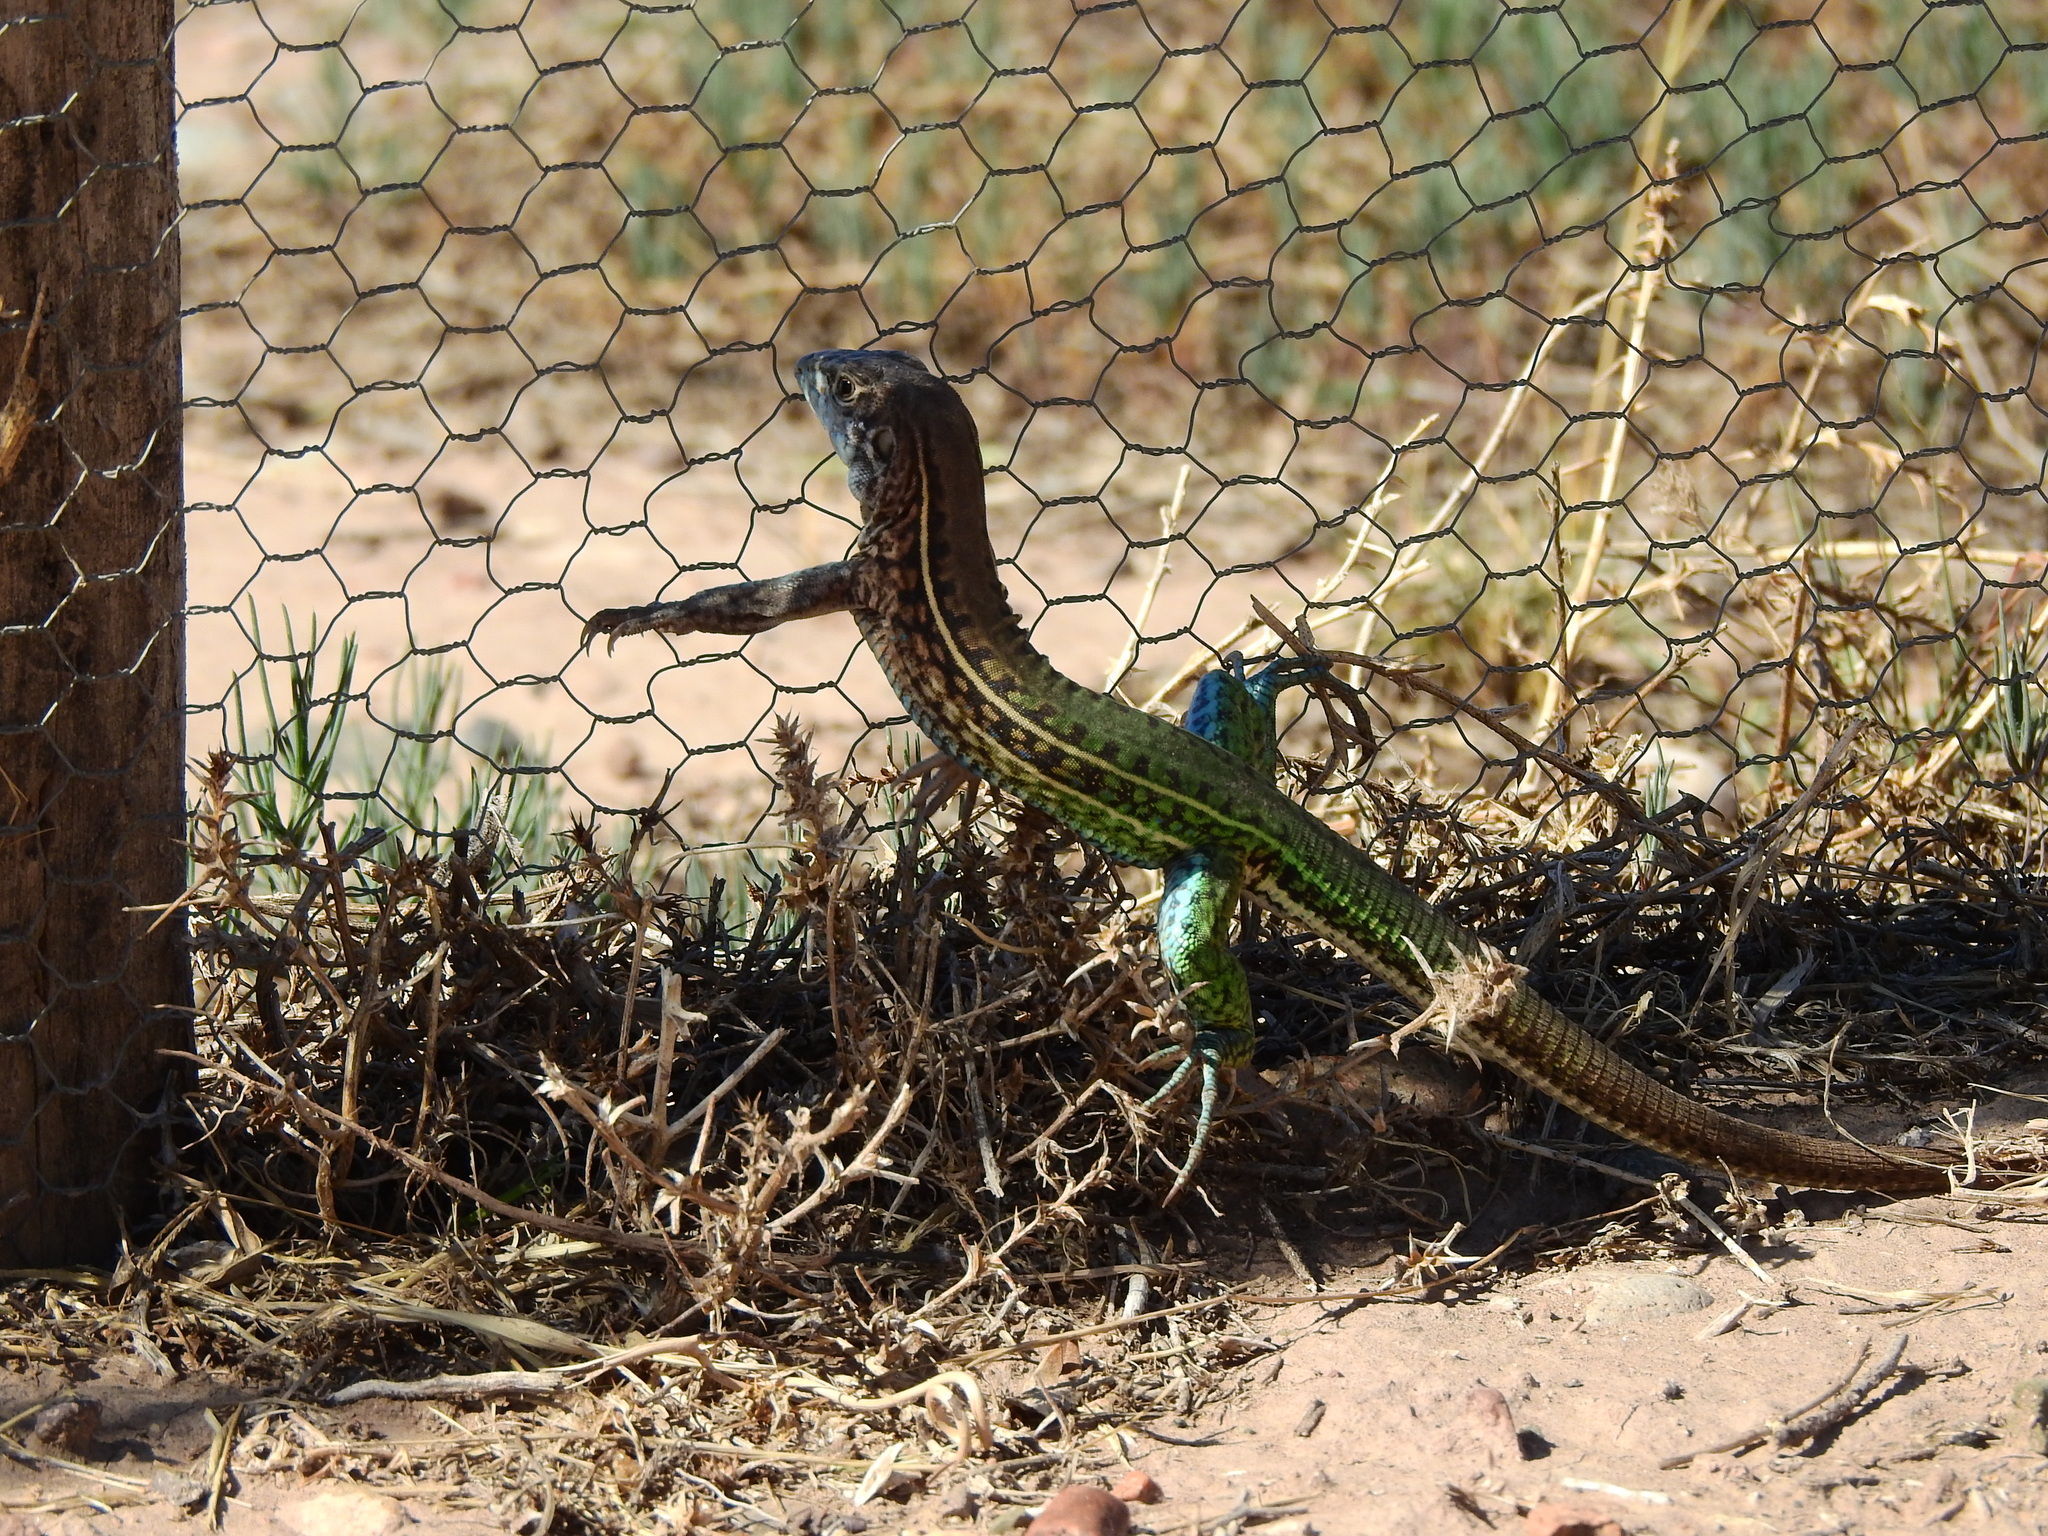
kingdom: Animalia
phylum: Chordata
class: Squamata
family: Teiidae
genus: Teius
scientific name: Teius teyou
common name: Four-toed tegu
